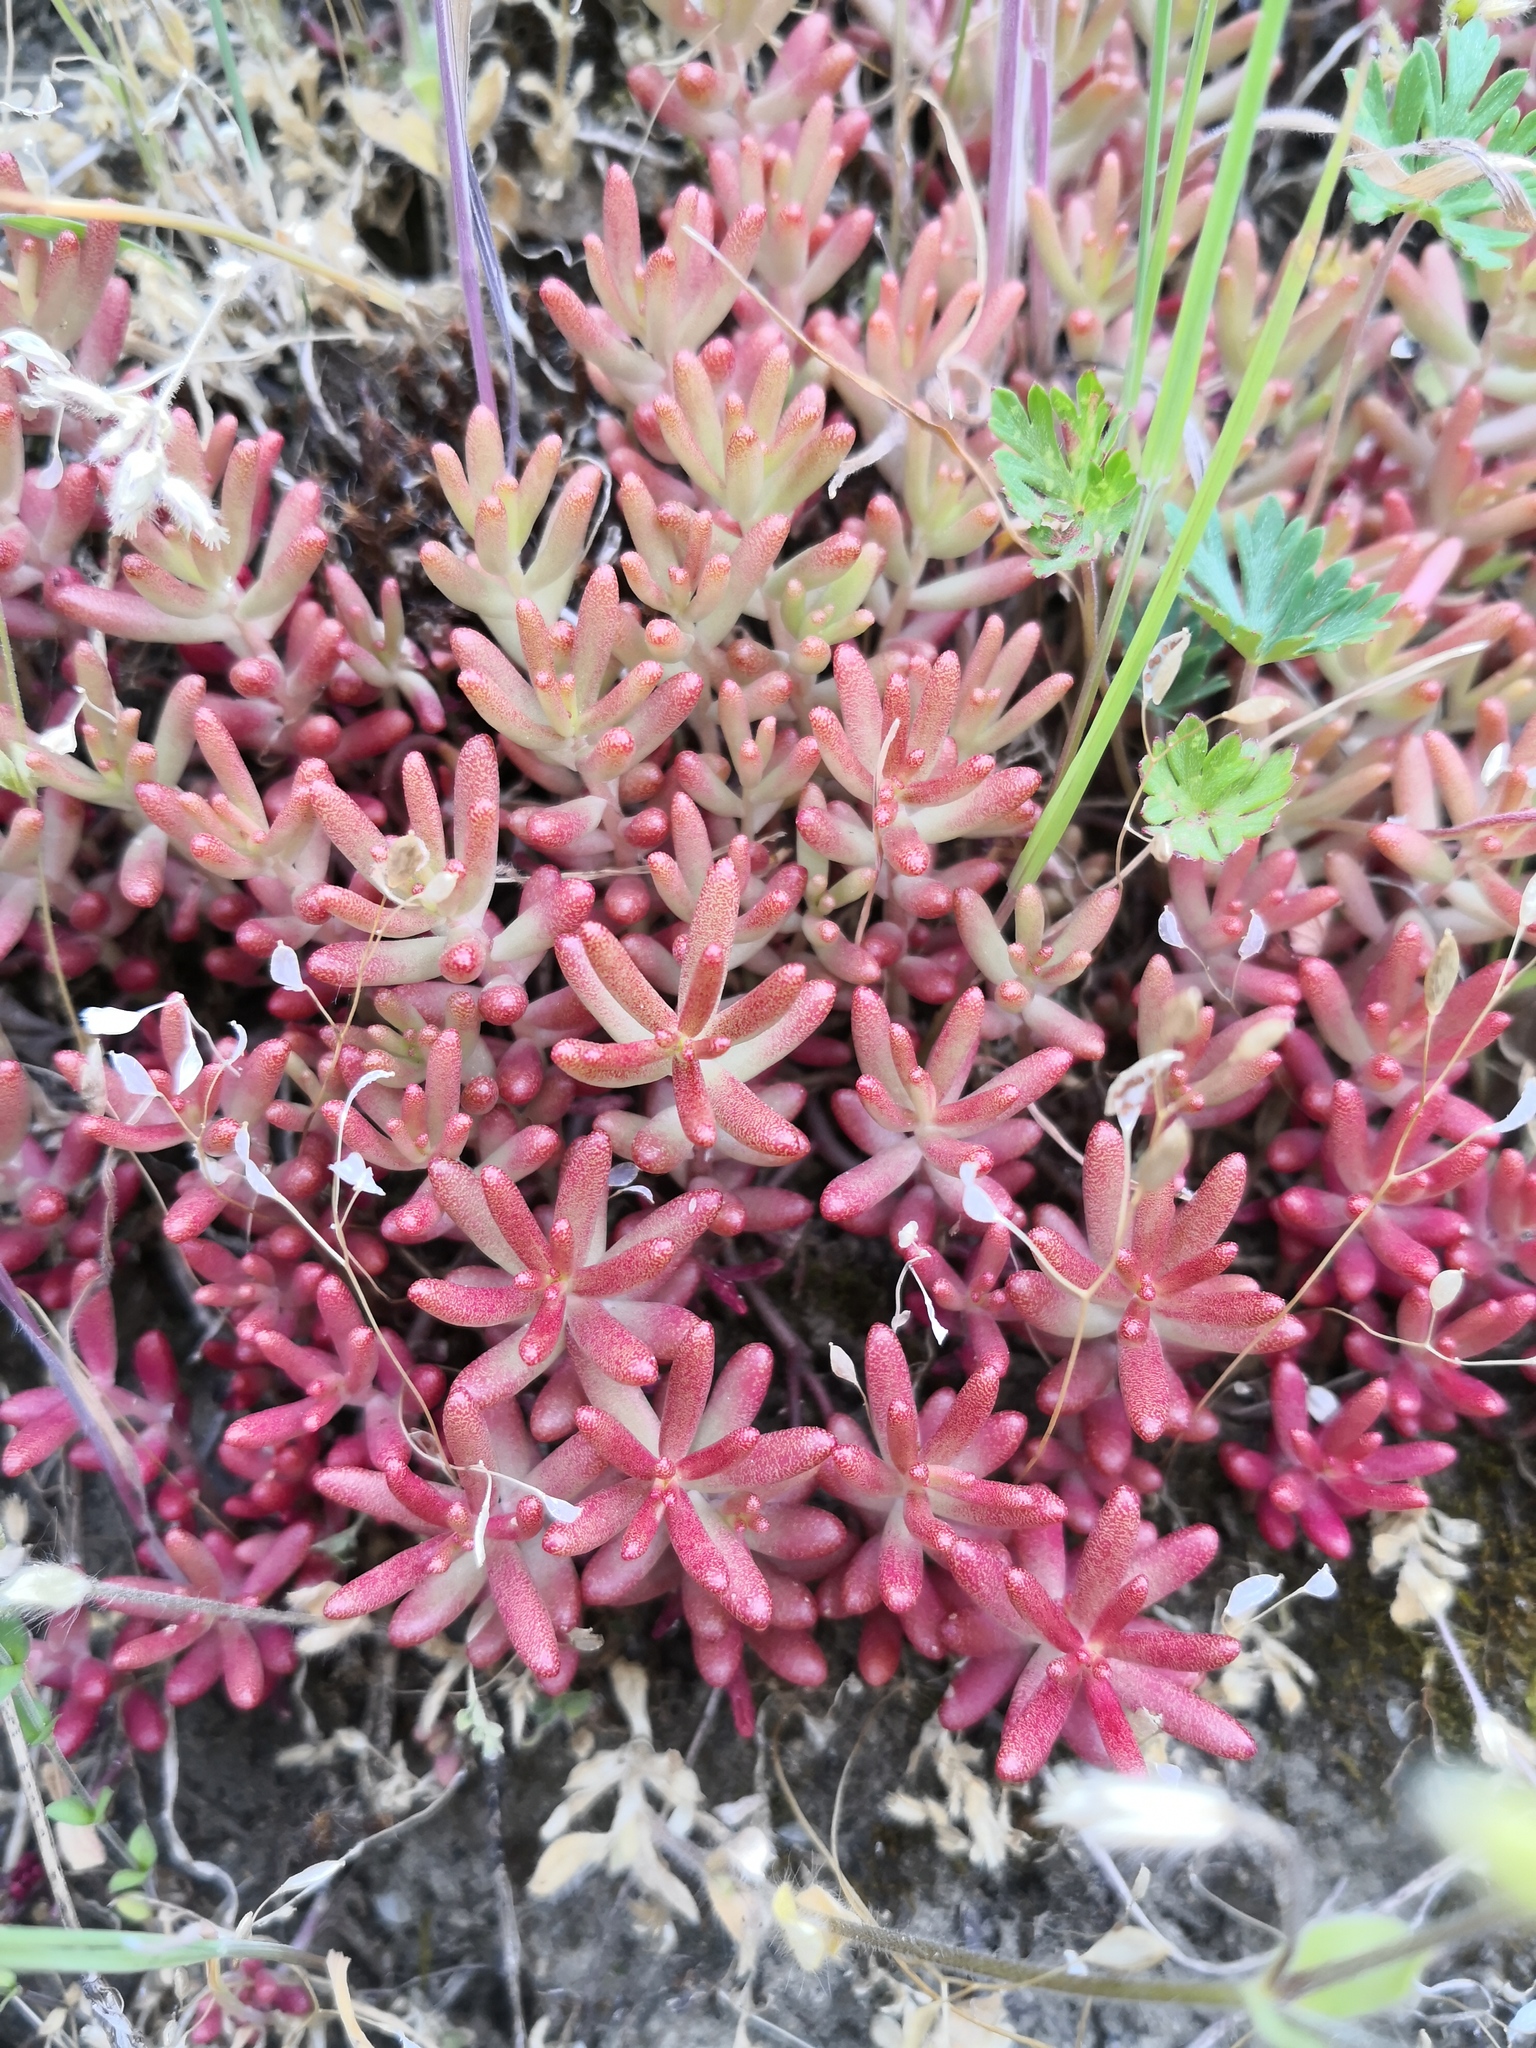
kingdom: Plantae
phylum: Tracheophyta
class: Magnoliopsida
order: Saxifragales
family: Crassulaceae
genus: Sedum
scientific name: Sedum album
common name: White stonecrop
